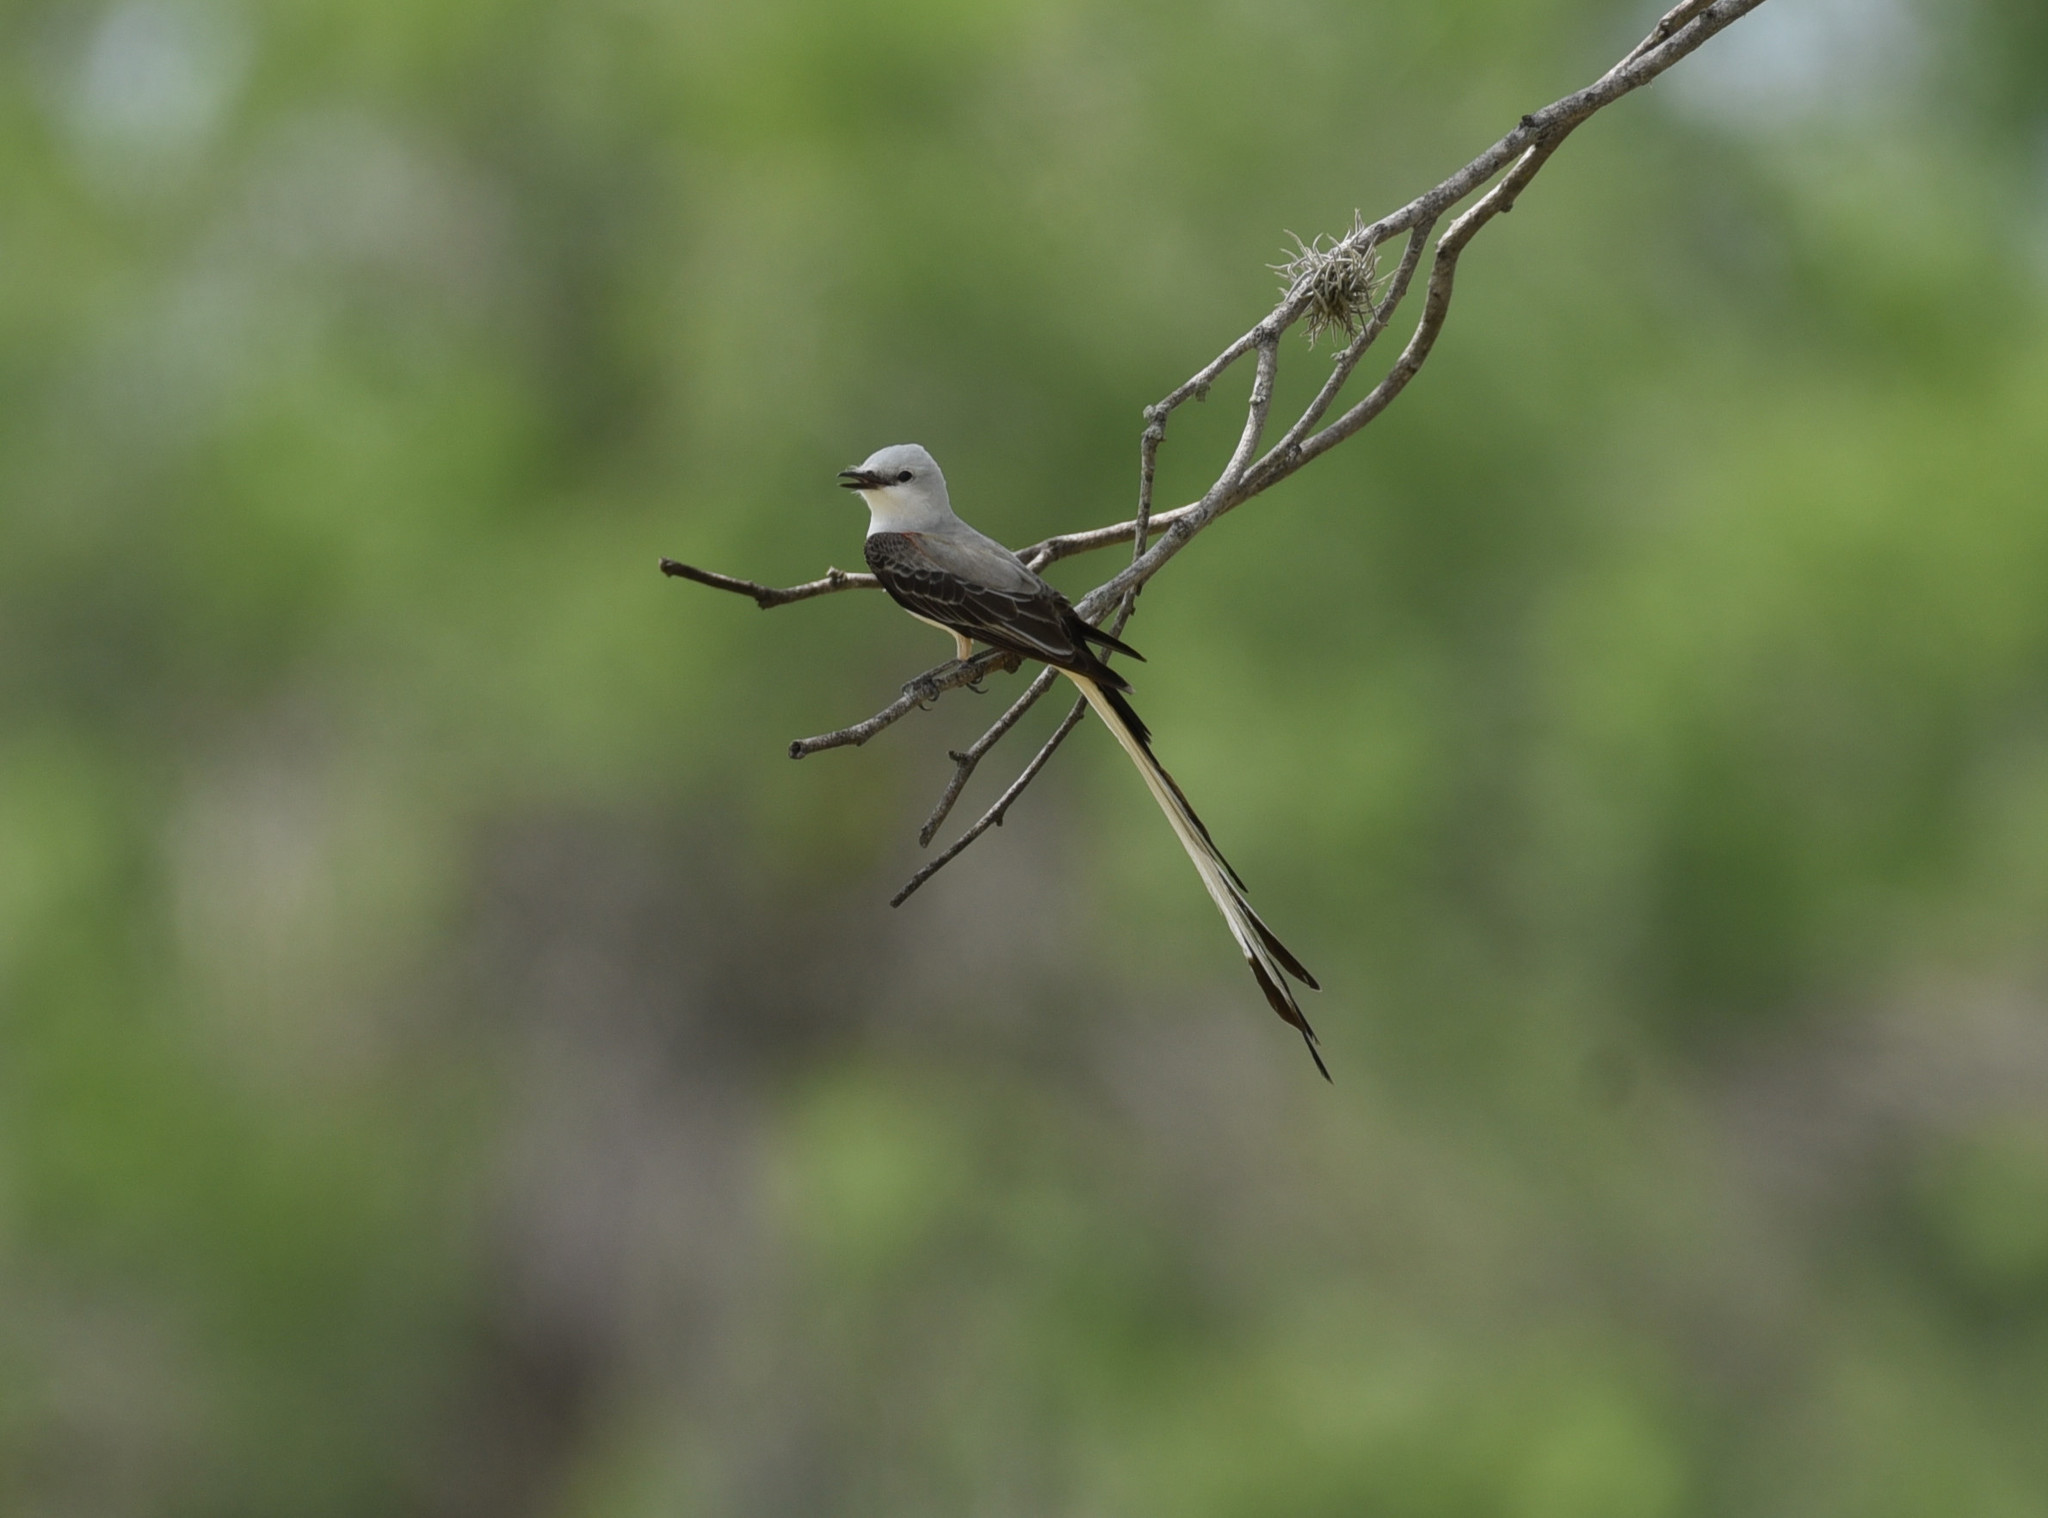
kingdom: Animalia
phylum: Chordata
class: Aves
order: Passeriformes
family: Tyrannidae
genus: Tyrannus
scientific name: Tyrannus forficatus
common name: Scissor-tailed flycatcher
